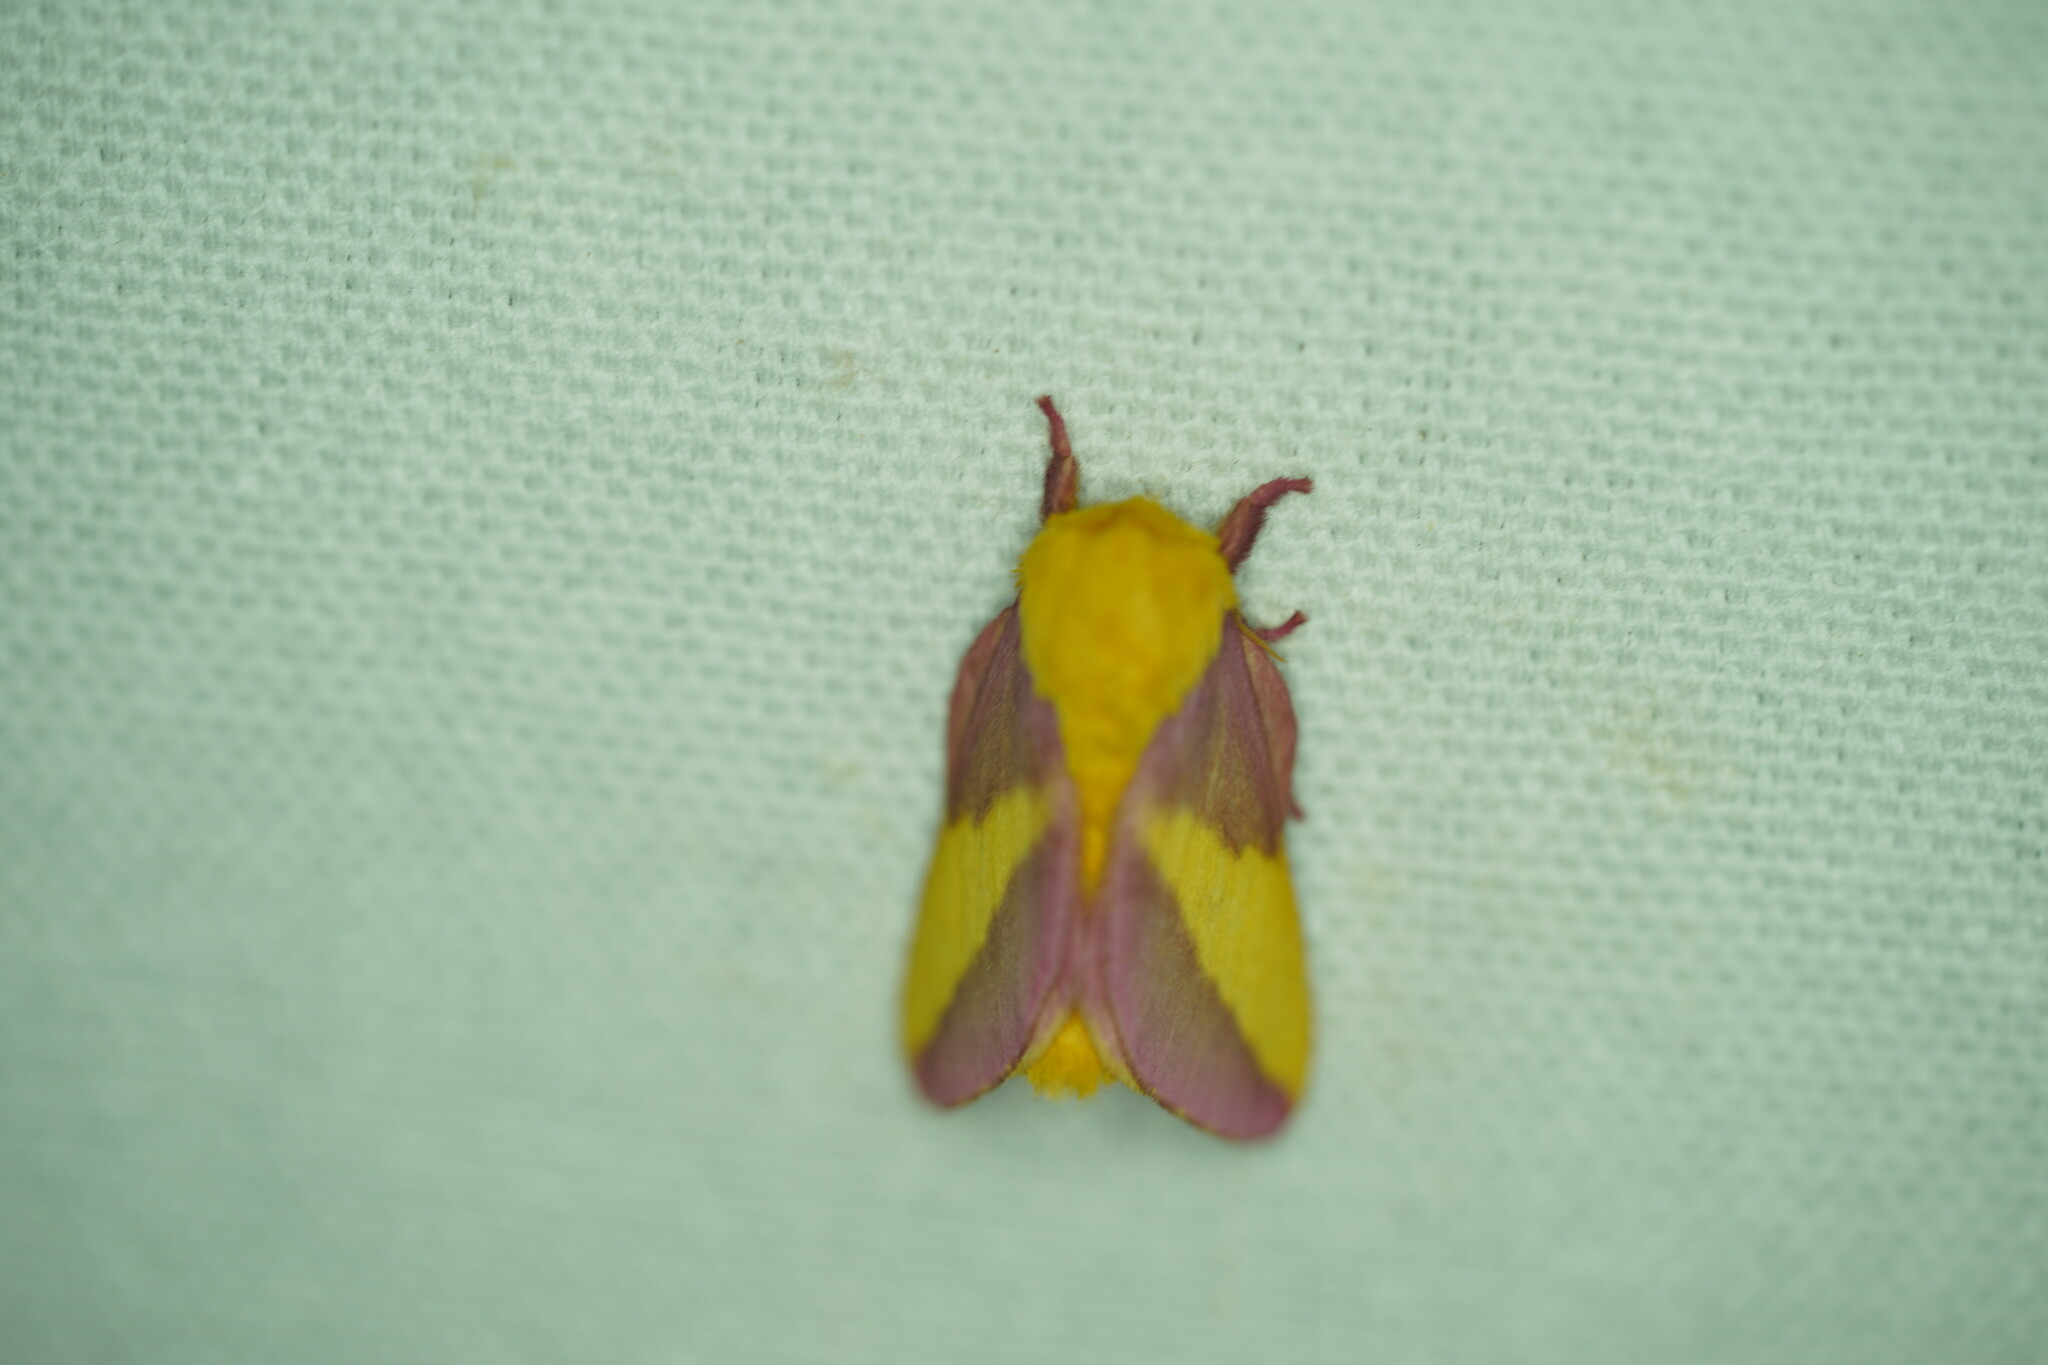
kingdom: Animalia
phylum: Arthropoda
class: Insecta
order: Lepidoptera
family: Saturniidae
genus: Dryocampa
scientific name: Dryocampa rubicunda
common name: Rosy maple moth
